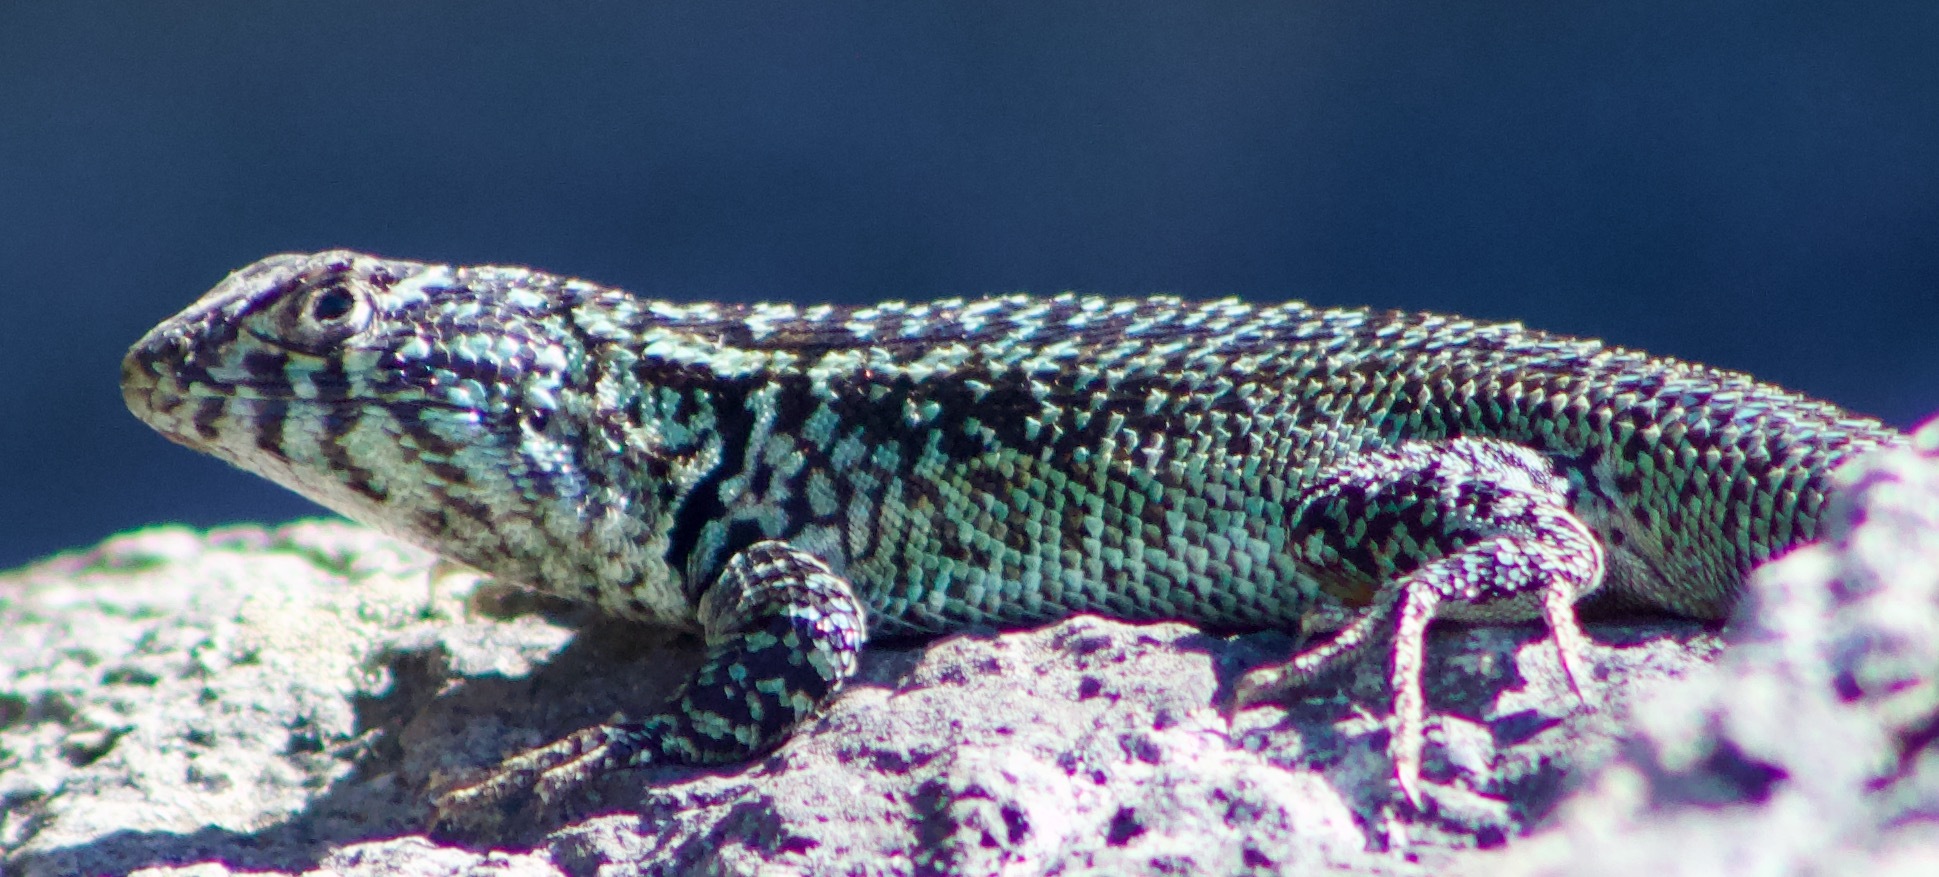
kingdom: Animalia
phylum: Chordata
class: Squamata
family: Liolaemidae
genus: Liolaemus
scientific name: Liolaemus zapallarensis
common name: Zapallaren tree iguana
